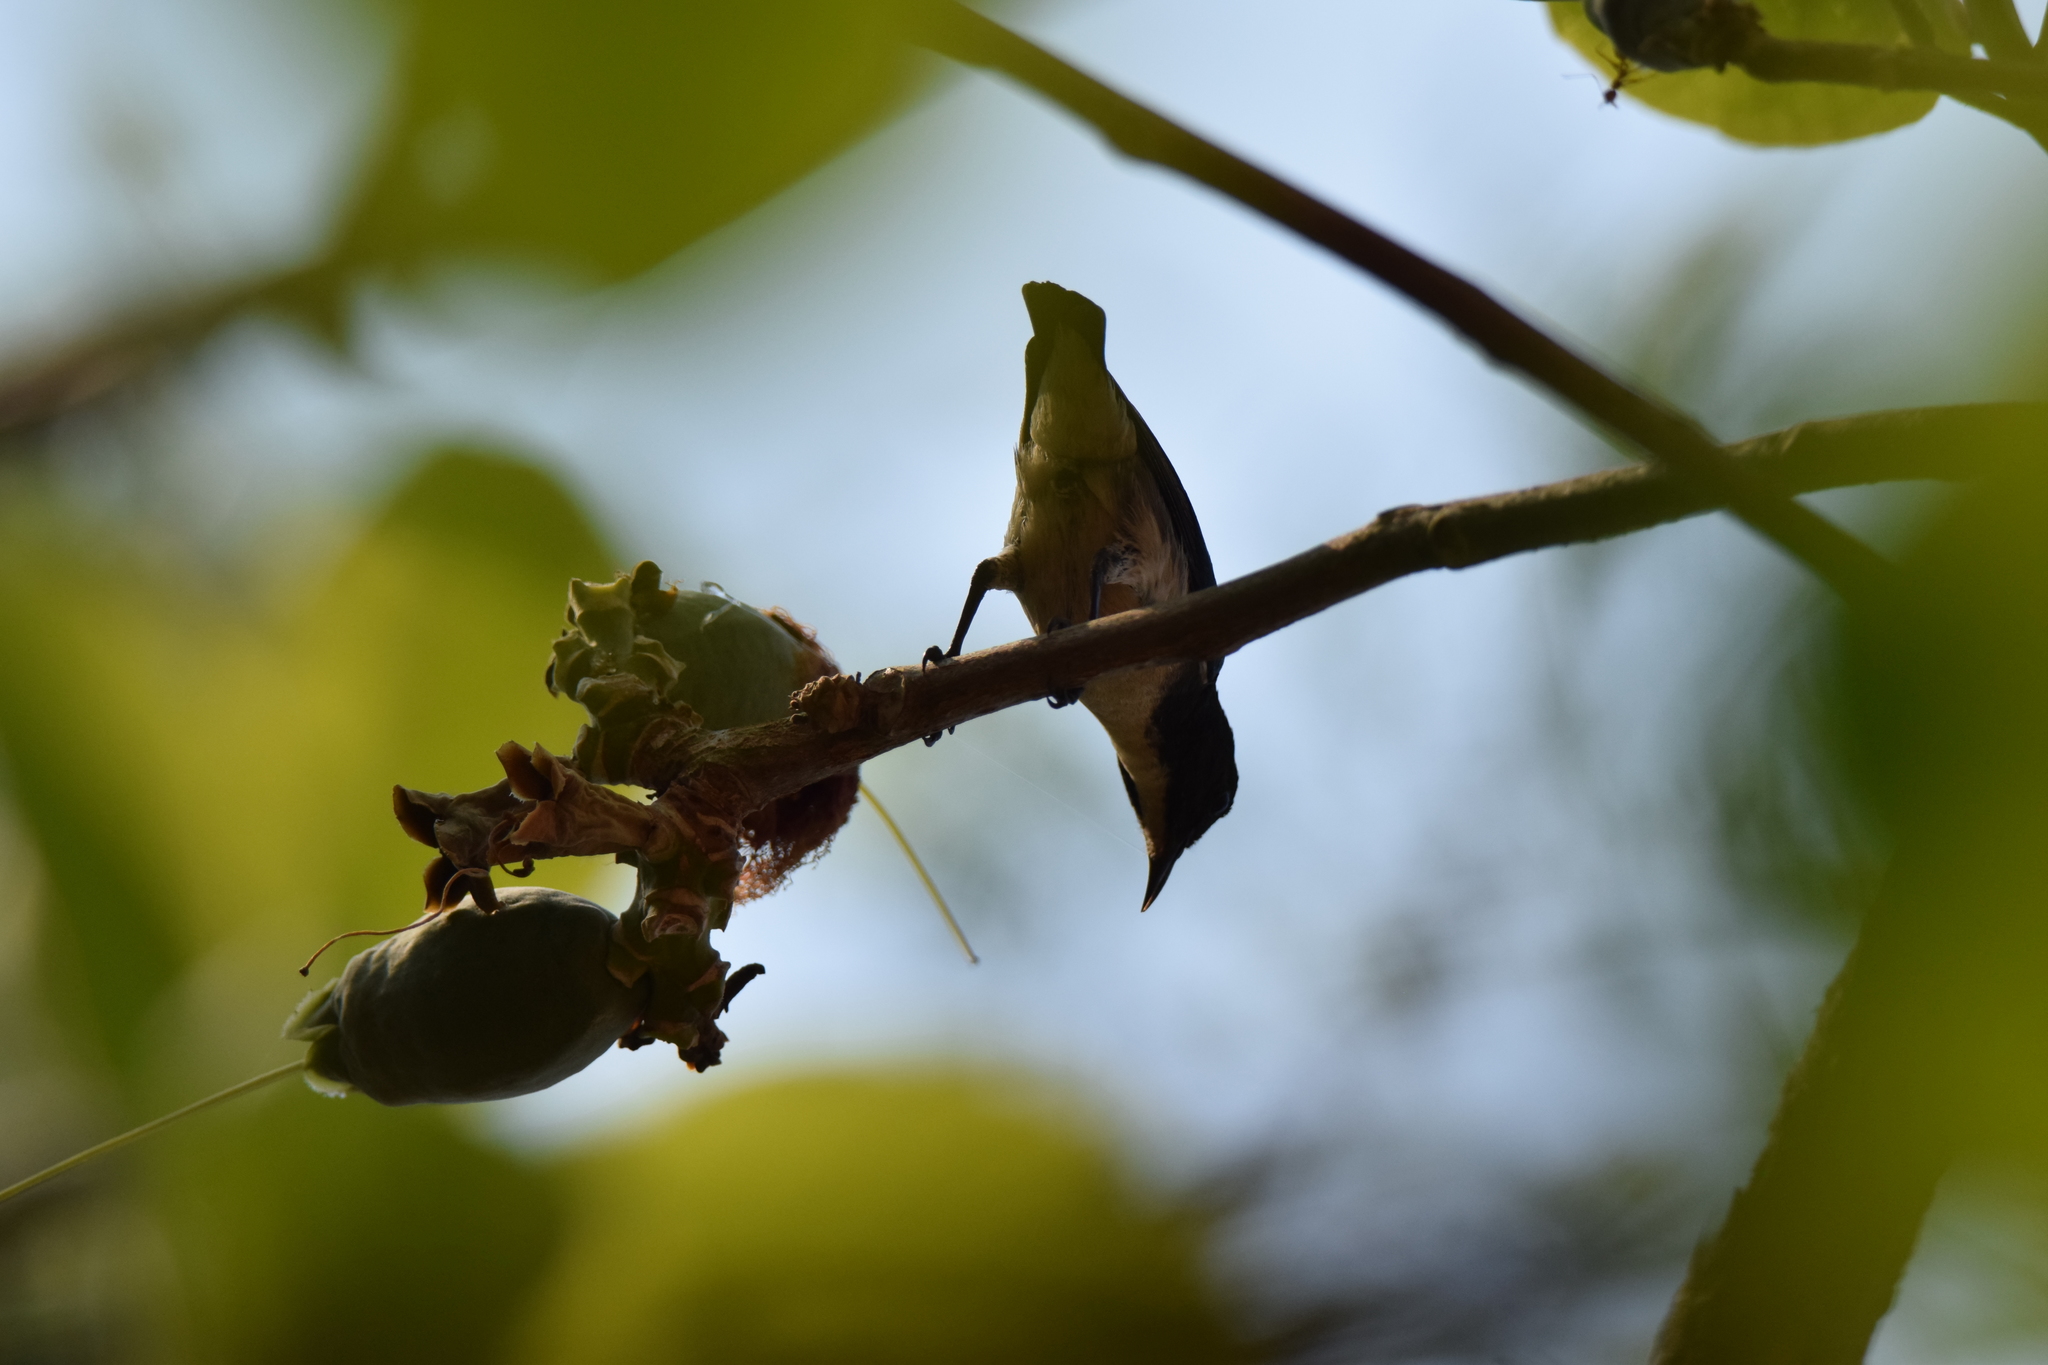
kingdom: Animalia
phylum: Chordata
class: Aves
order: Passeriformes
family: Dicaeidae
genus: Dicaeum
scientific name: Dicaeum cruentatum
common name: Scarlet-backed flowerpecker
